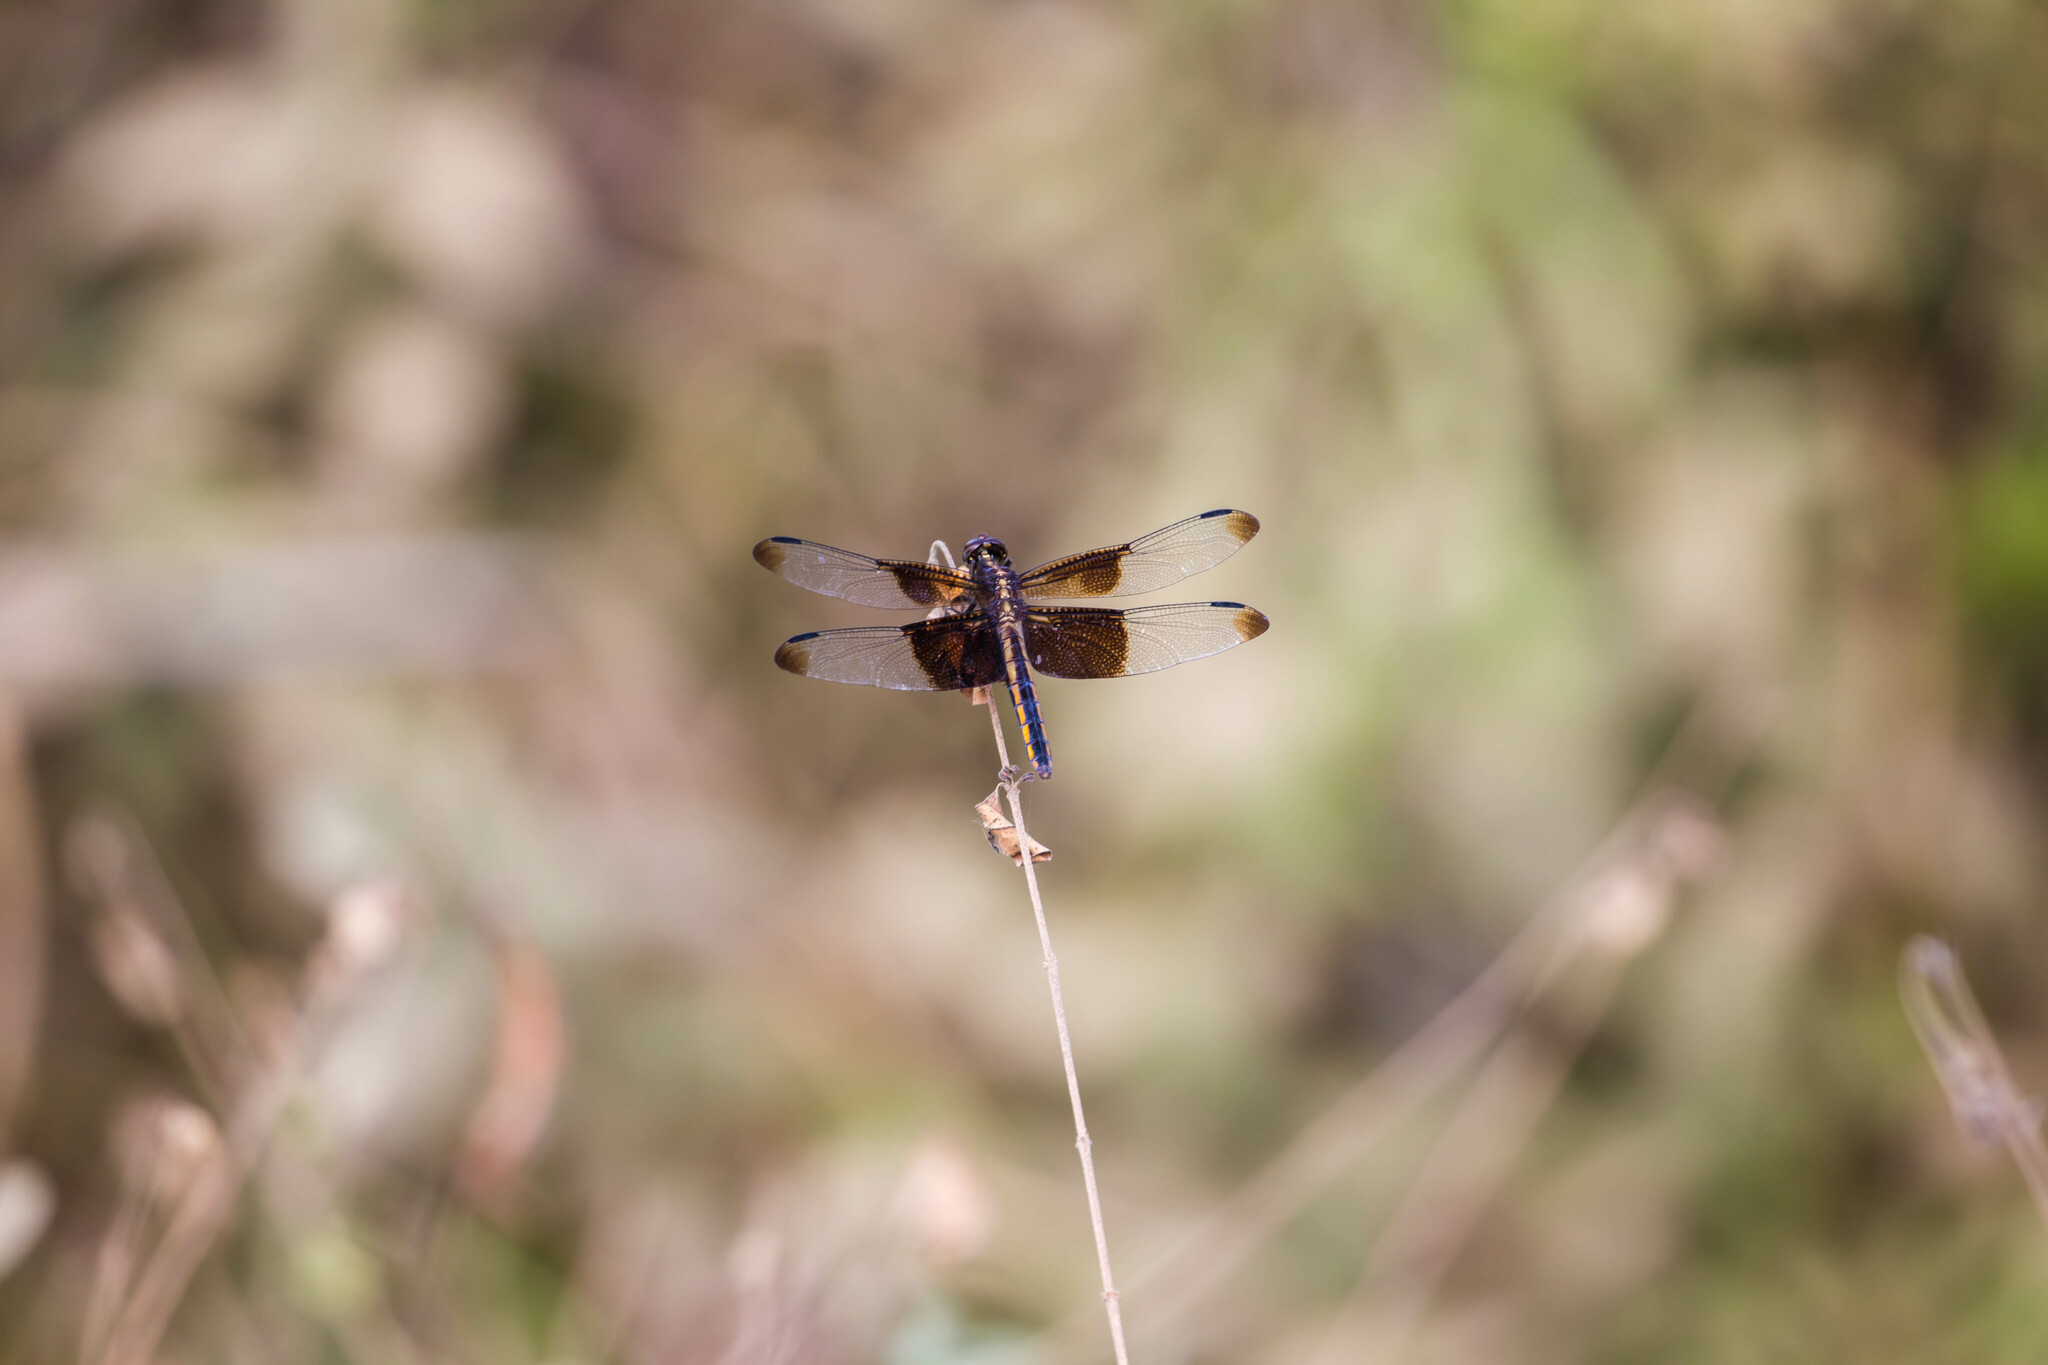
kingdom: Animalia
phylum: Arthropoda
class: Insecta
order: Odonata
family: Libellulidae
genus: Libellula
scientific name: Libellula luctuosa
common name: Widow skimmer
